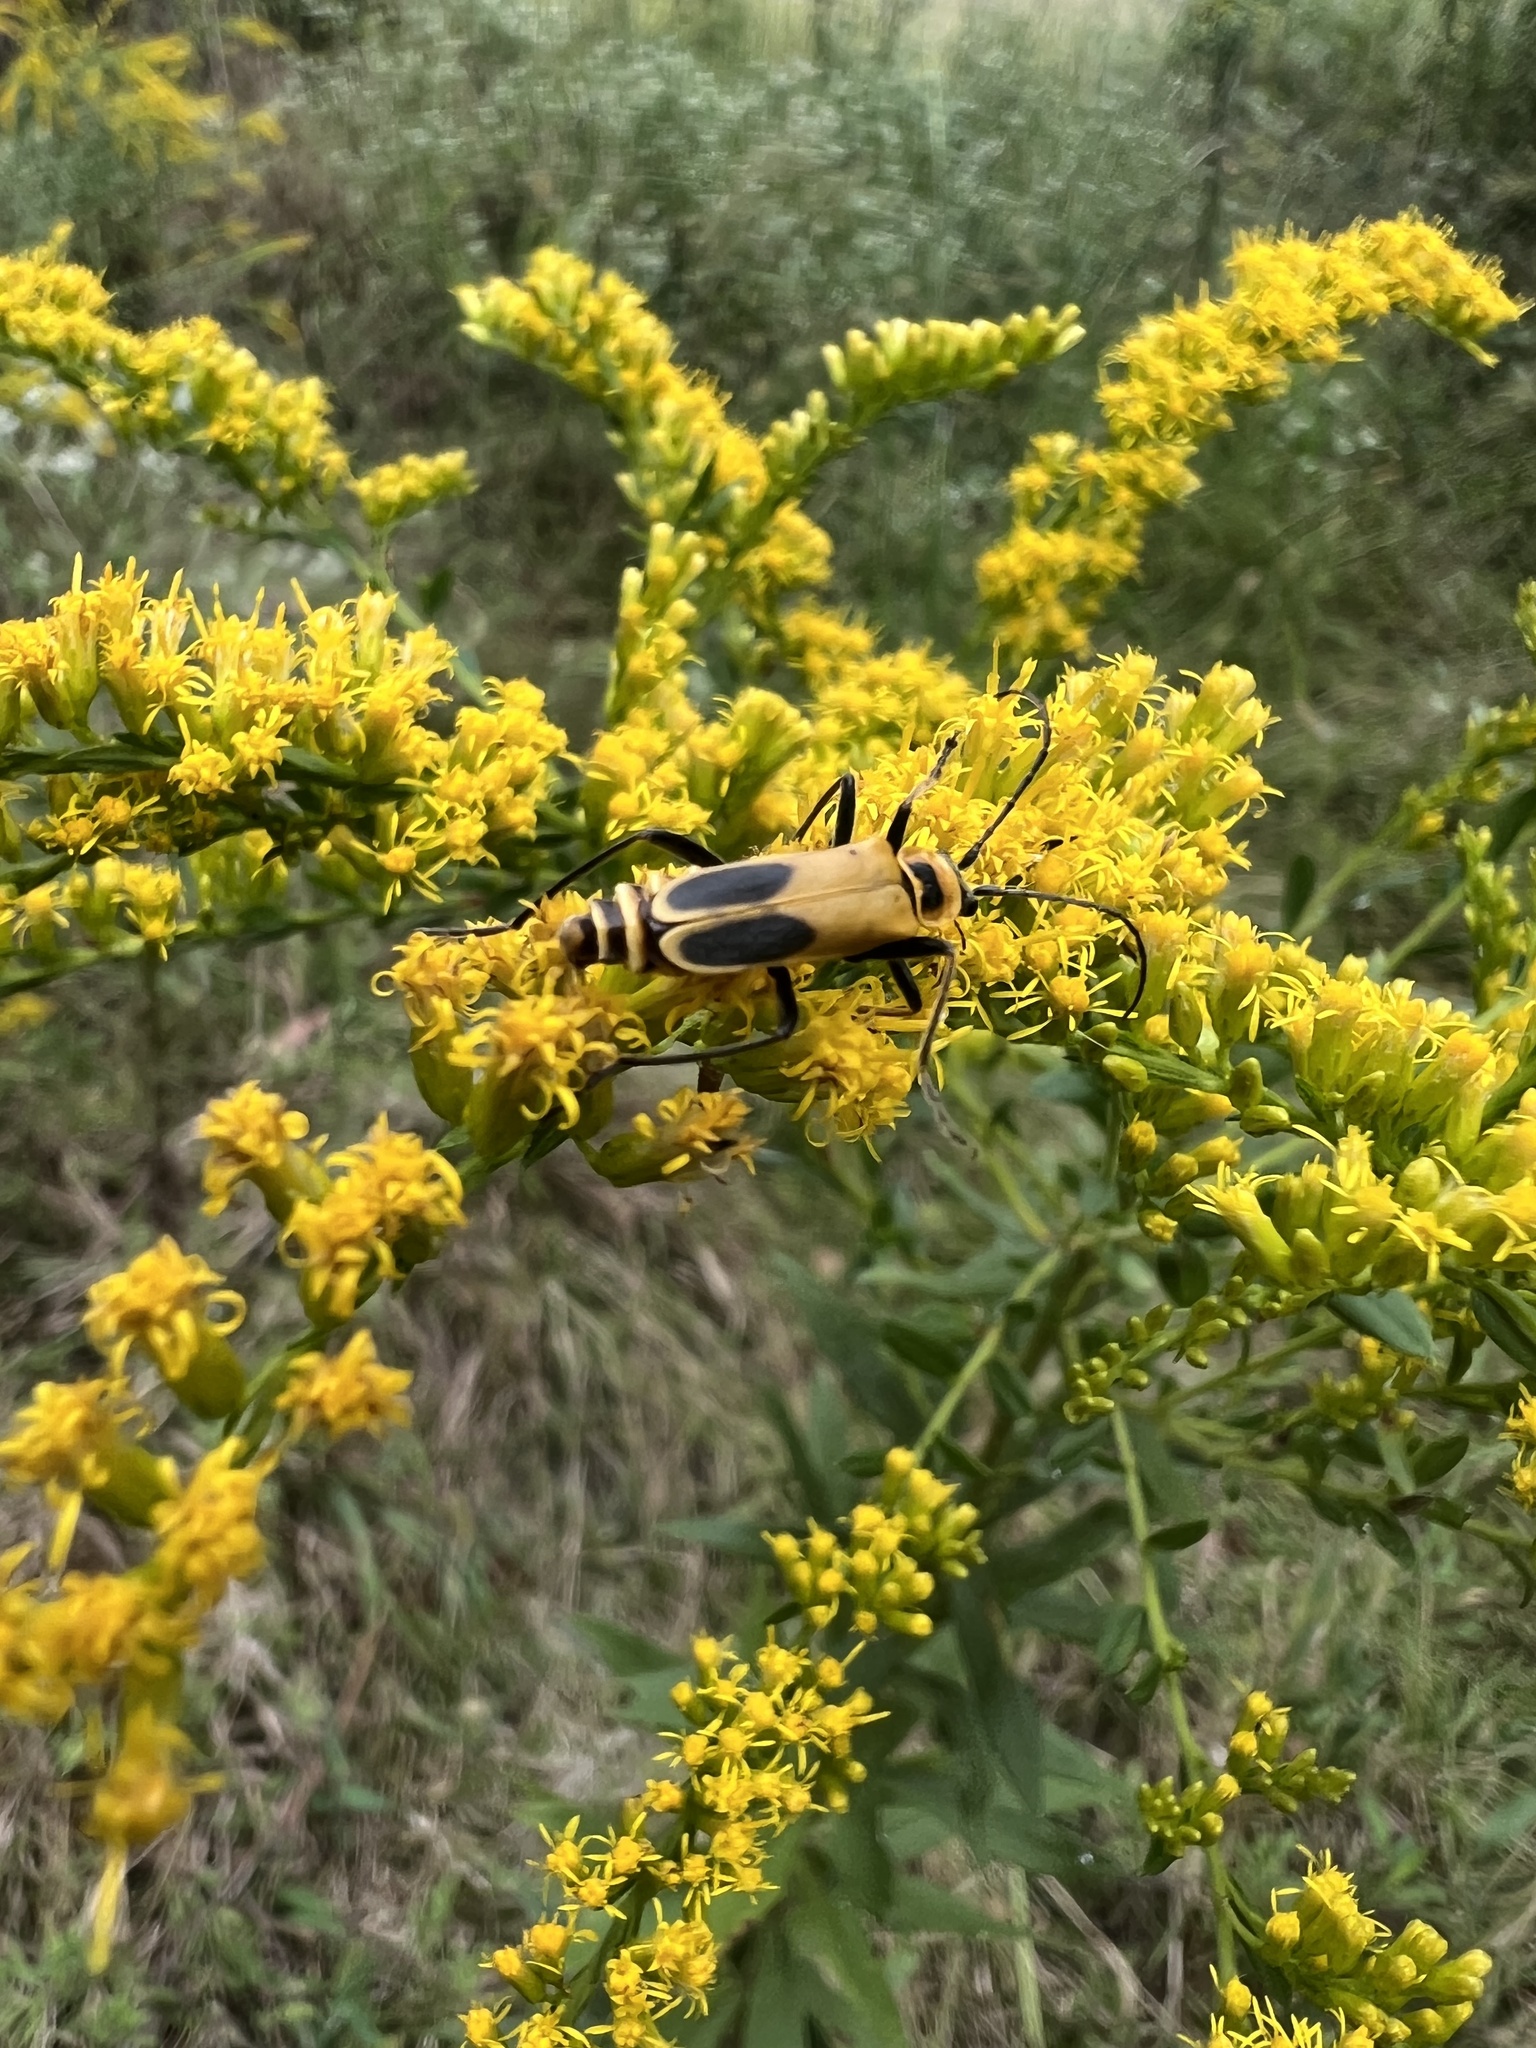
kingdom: Animalia
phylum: Arthropoda
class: Insecta
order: Coleoptera
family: Cantharidae
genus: Chauliognathus
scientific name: Chauliognathus pensylvanicus
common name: Goldenrod soldier beetle
